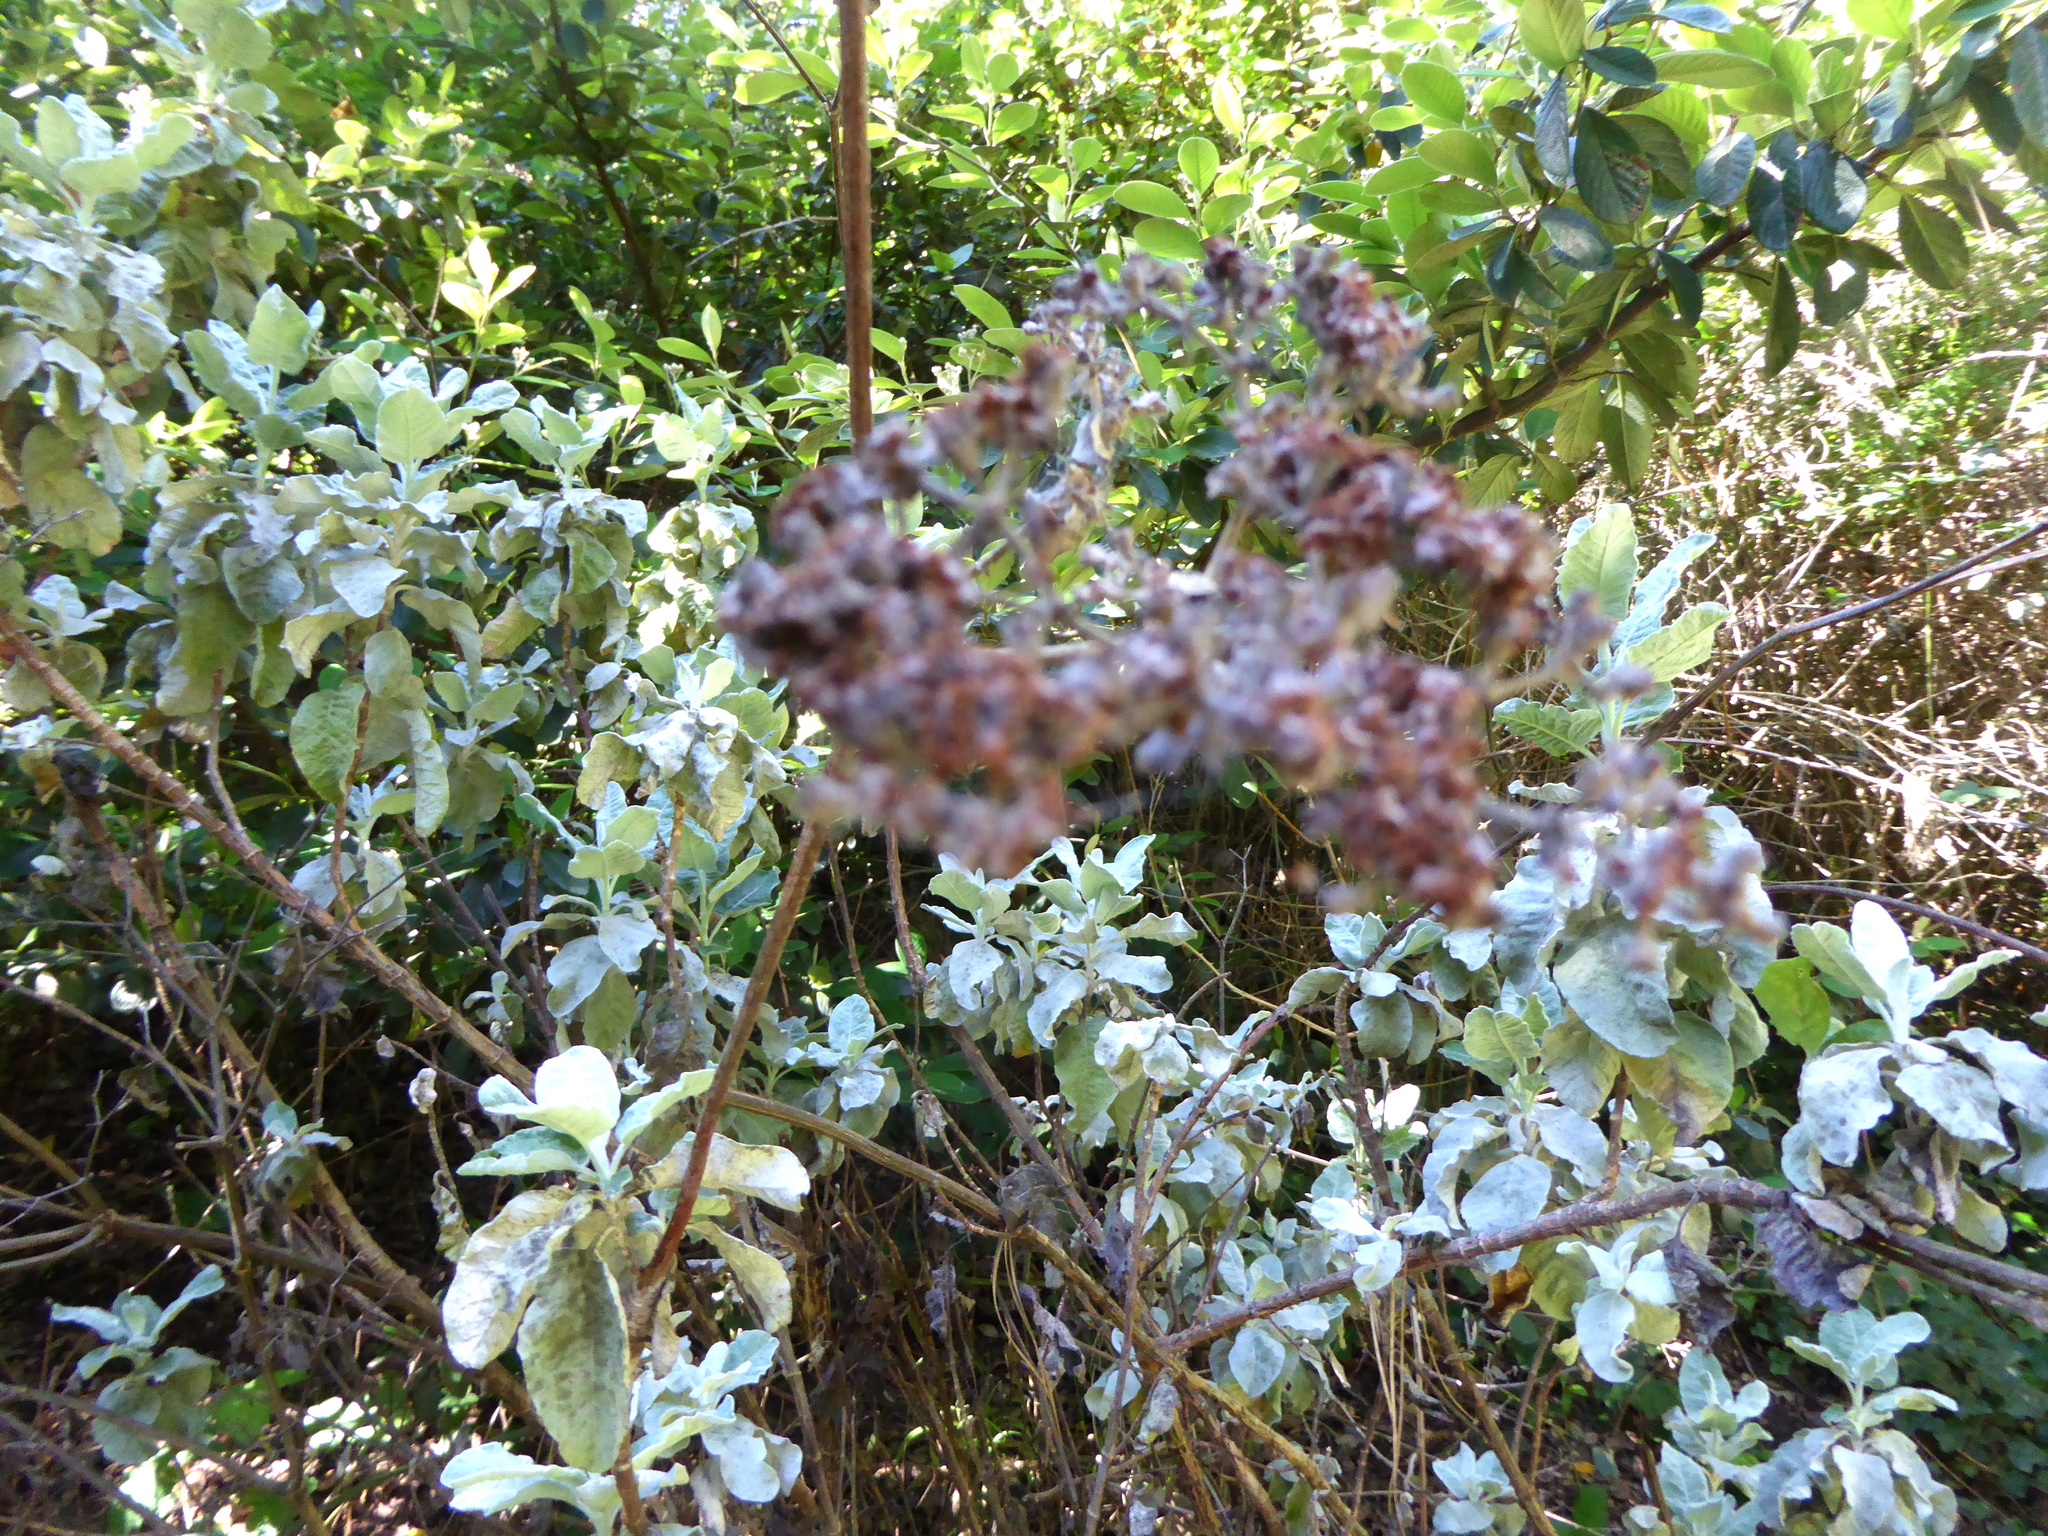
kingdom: Animalia
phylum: Chordata
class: Aves
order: Accipitriformes
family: Accipitridae
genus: Buteo
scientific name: Buteo jamaicensis
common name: Red-tailed hawk
